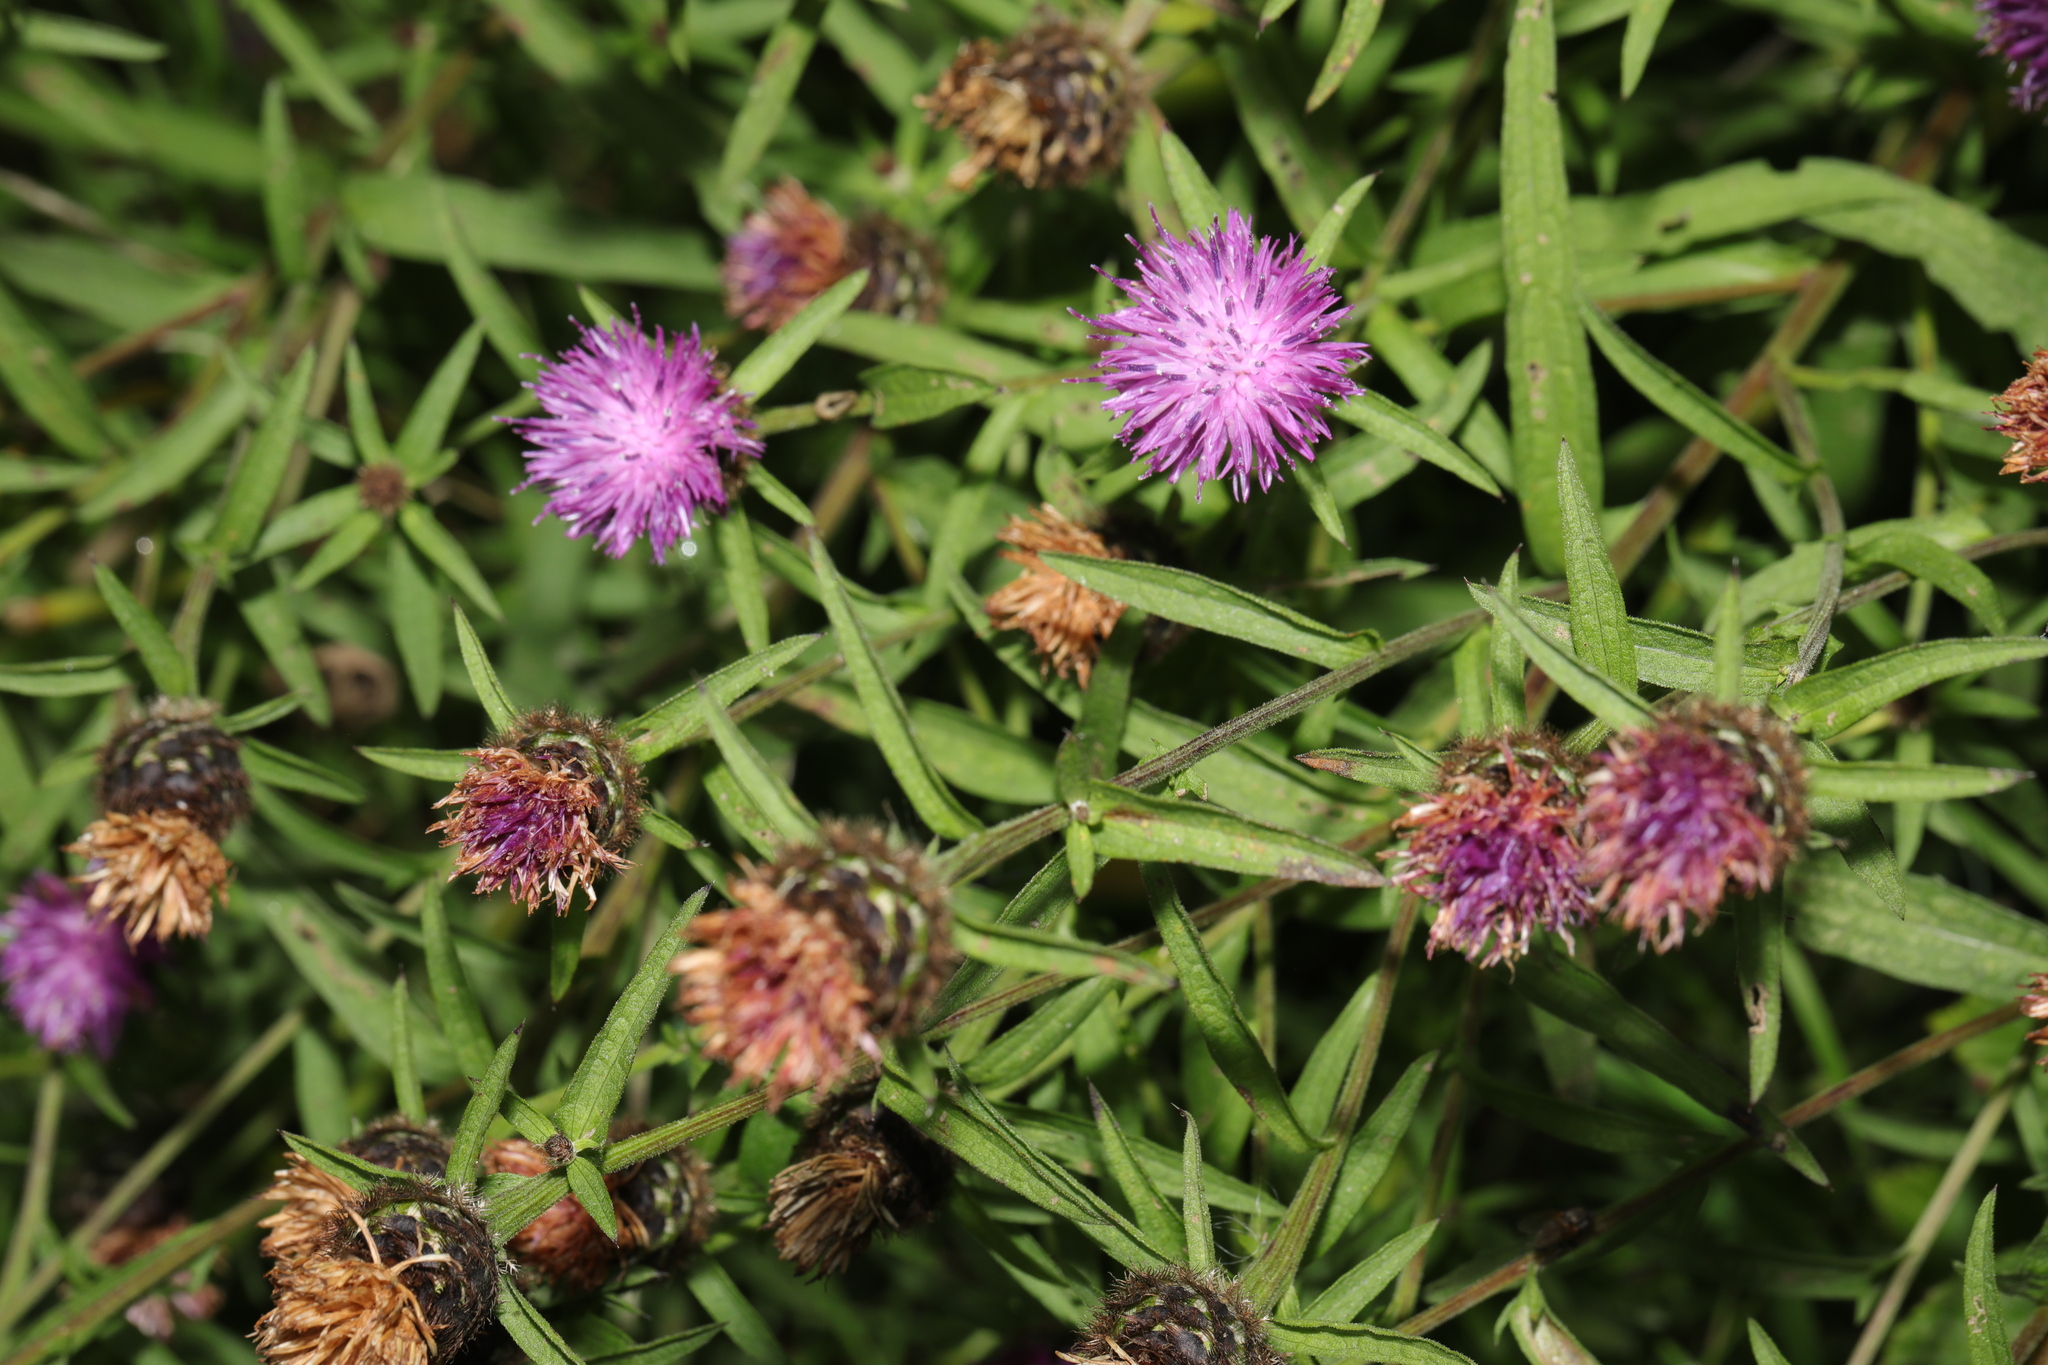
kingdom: Plantae
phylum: Tracheophyta
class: Magnoliopsida
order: Asterales
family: Asteraceae
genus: Centaurea
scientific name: Centaurea nigra
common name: Lesser knapweed
